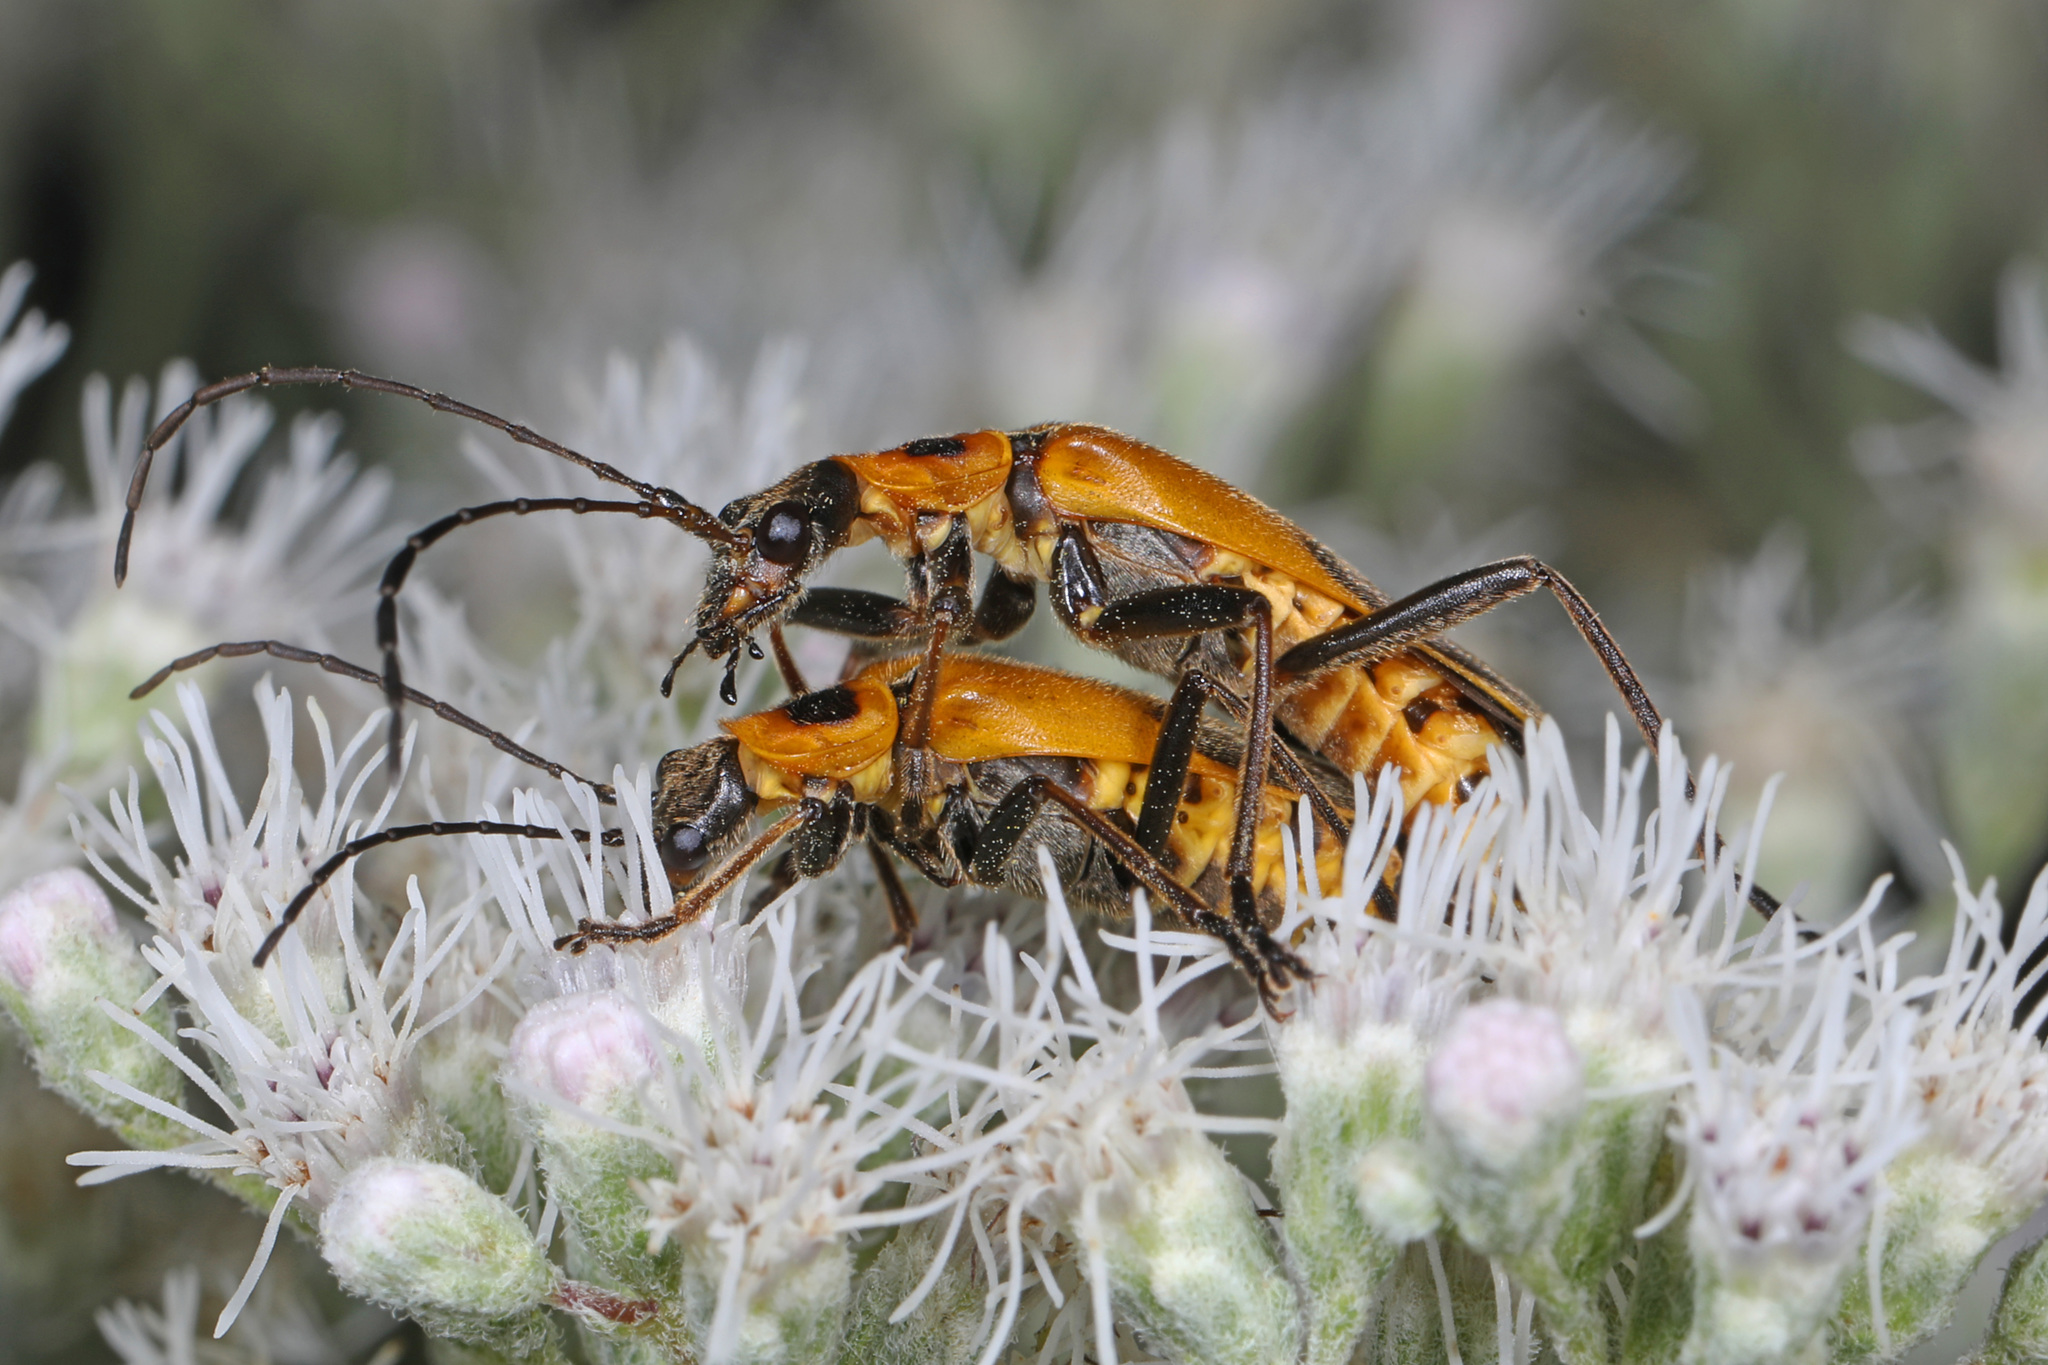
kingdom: Animalia
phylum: Arthropoda
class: Insecta
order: Coleoptera
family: Cantharidae
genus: Chauliognathus
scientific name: Chauliognathus pensylvanicus
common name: Goldenrod soldier beetle
